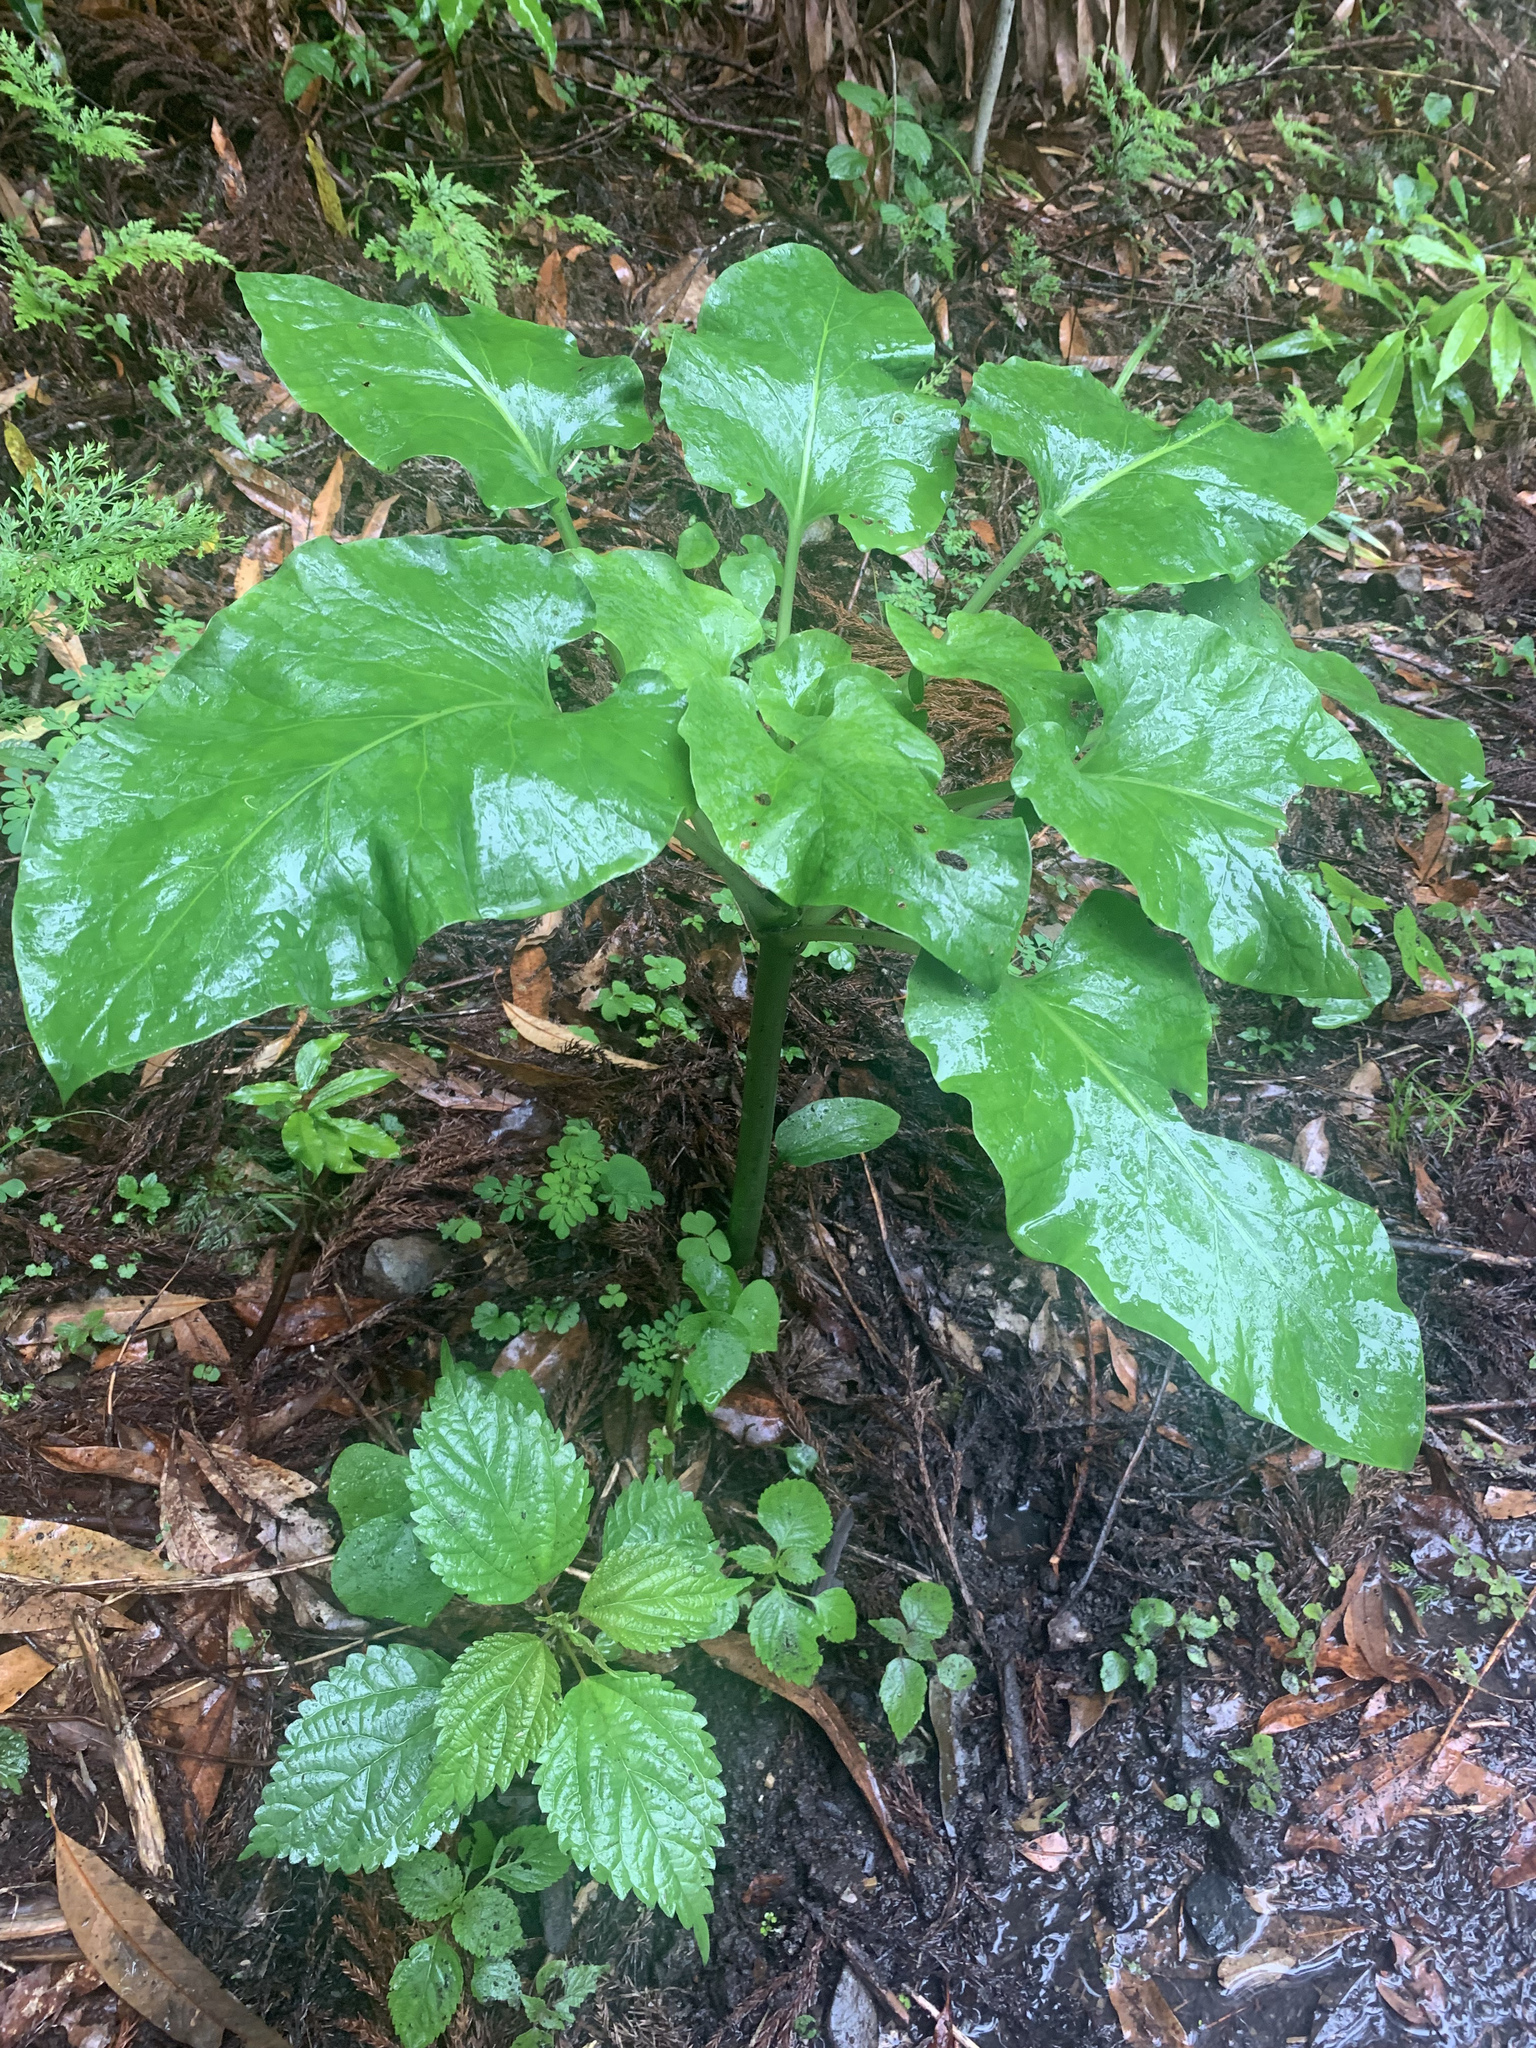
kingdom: Plantae
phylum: Tracheophyta
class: Liliopsida
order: Liliales
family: Liliaceae
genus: Cardiocrinum
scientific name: Cardiocrinum cordatum
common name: Lily
